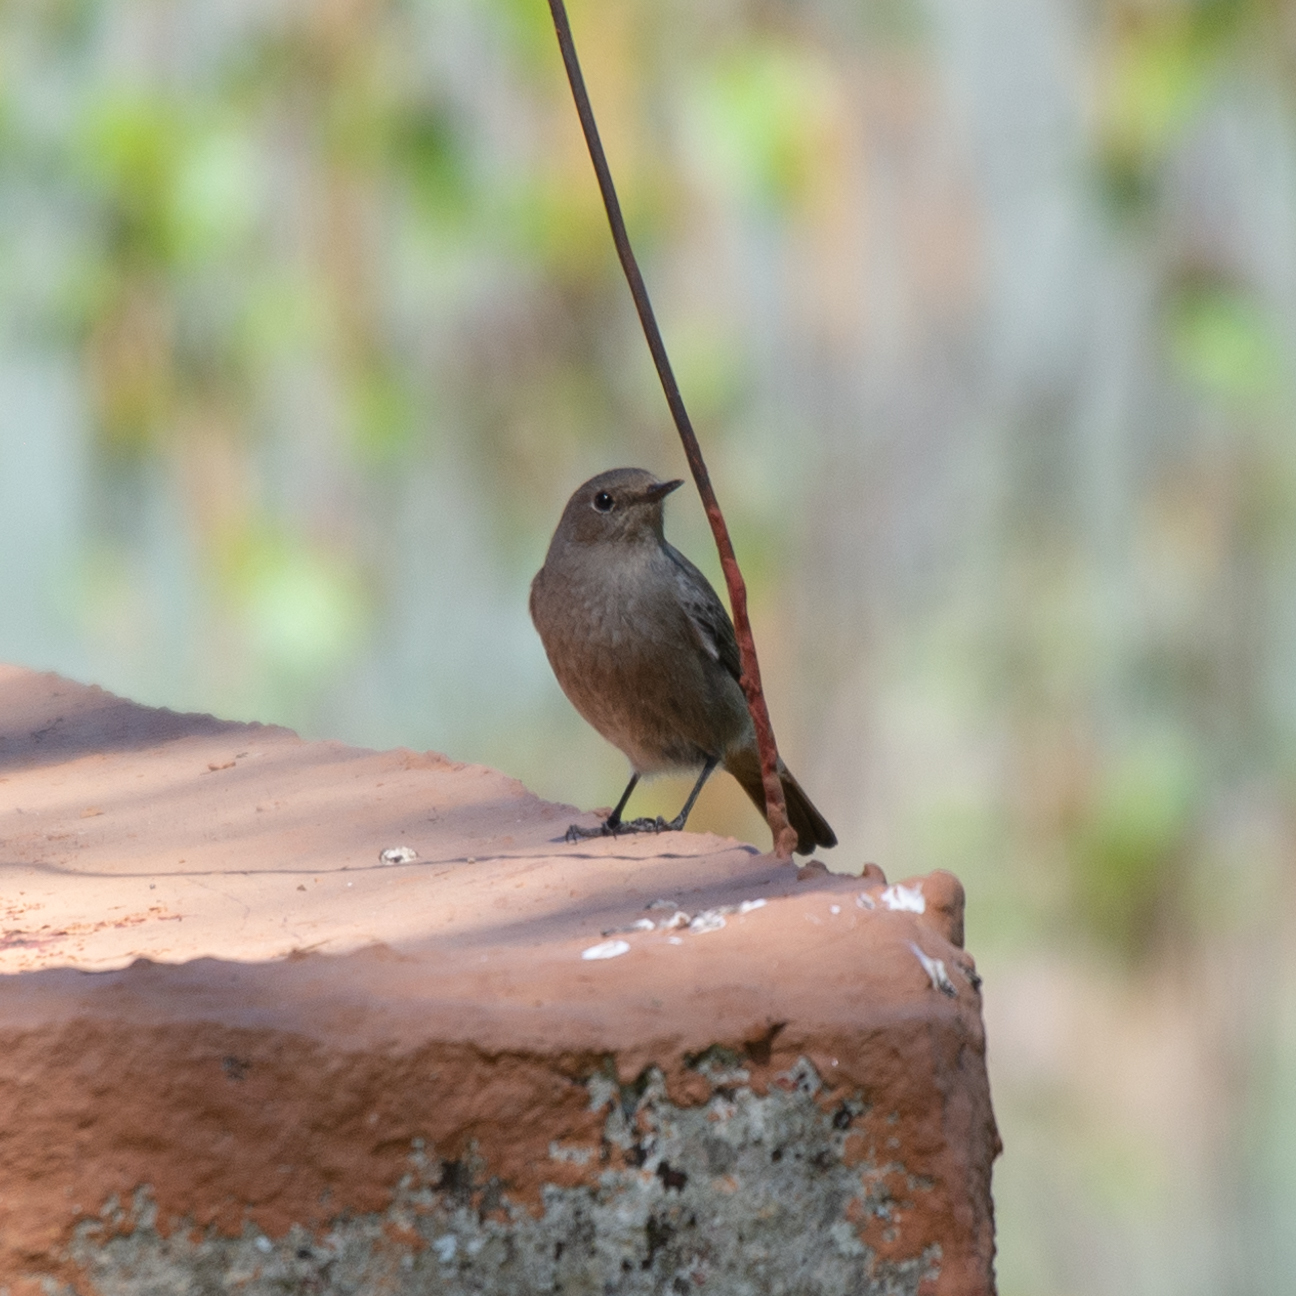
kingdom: Animalia
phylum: Chordata
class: Aves
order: Passeriformes
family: Muscicapidae
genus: Phoenicurus
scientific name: Phoenicurus ochruros
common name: Black redstart
